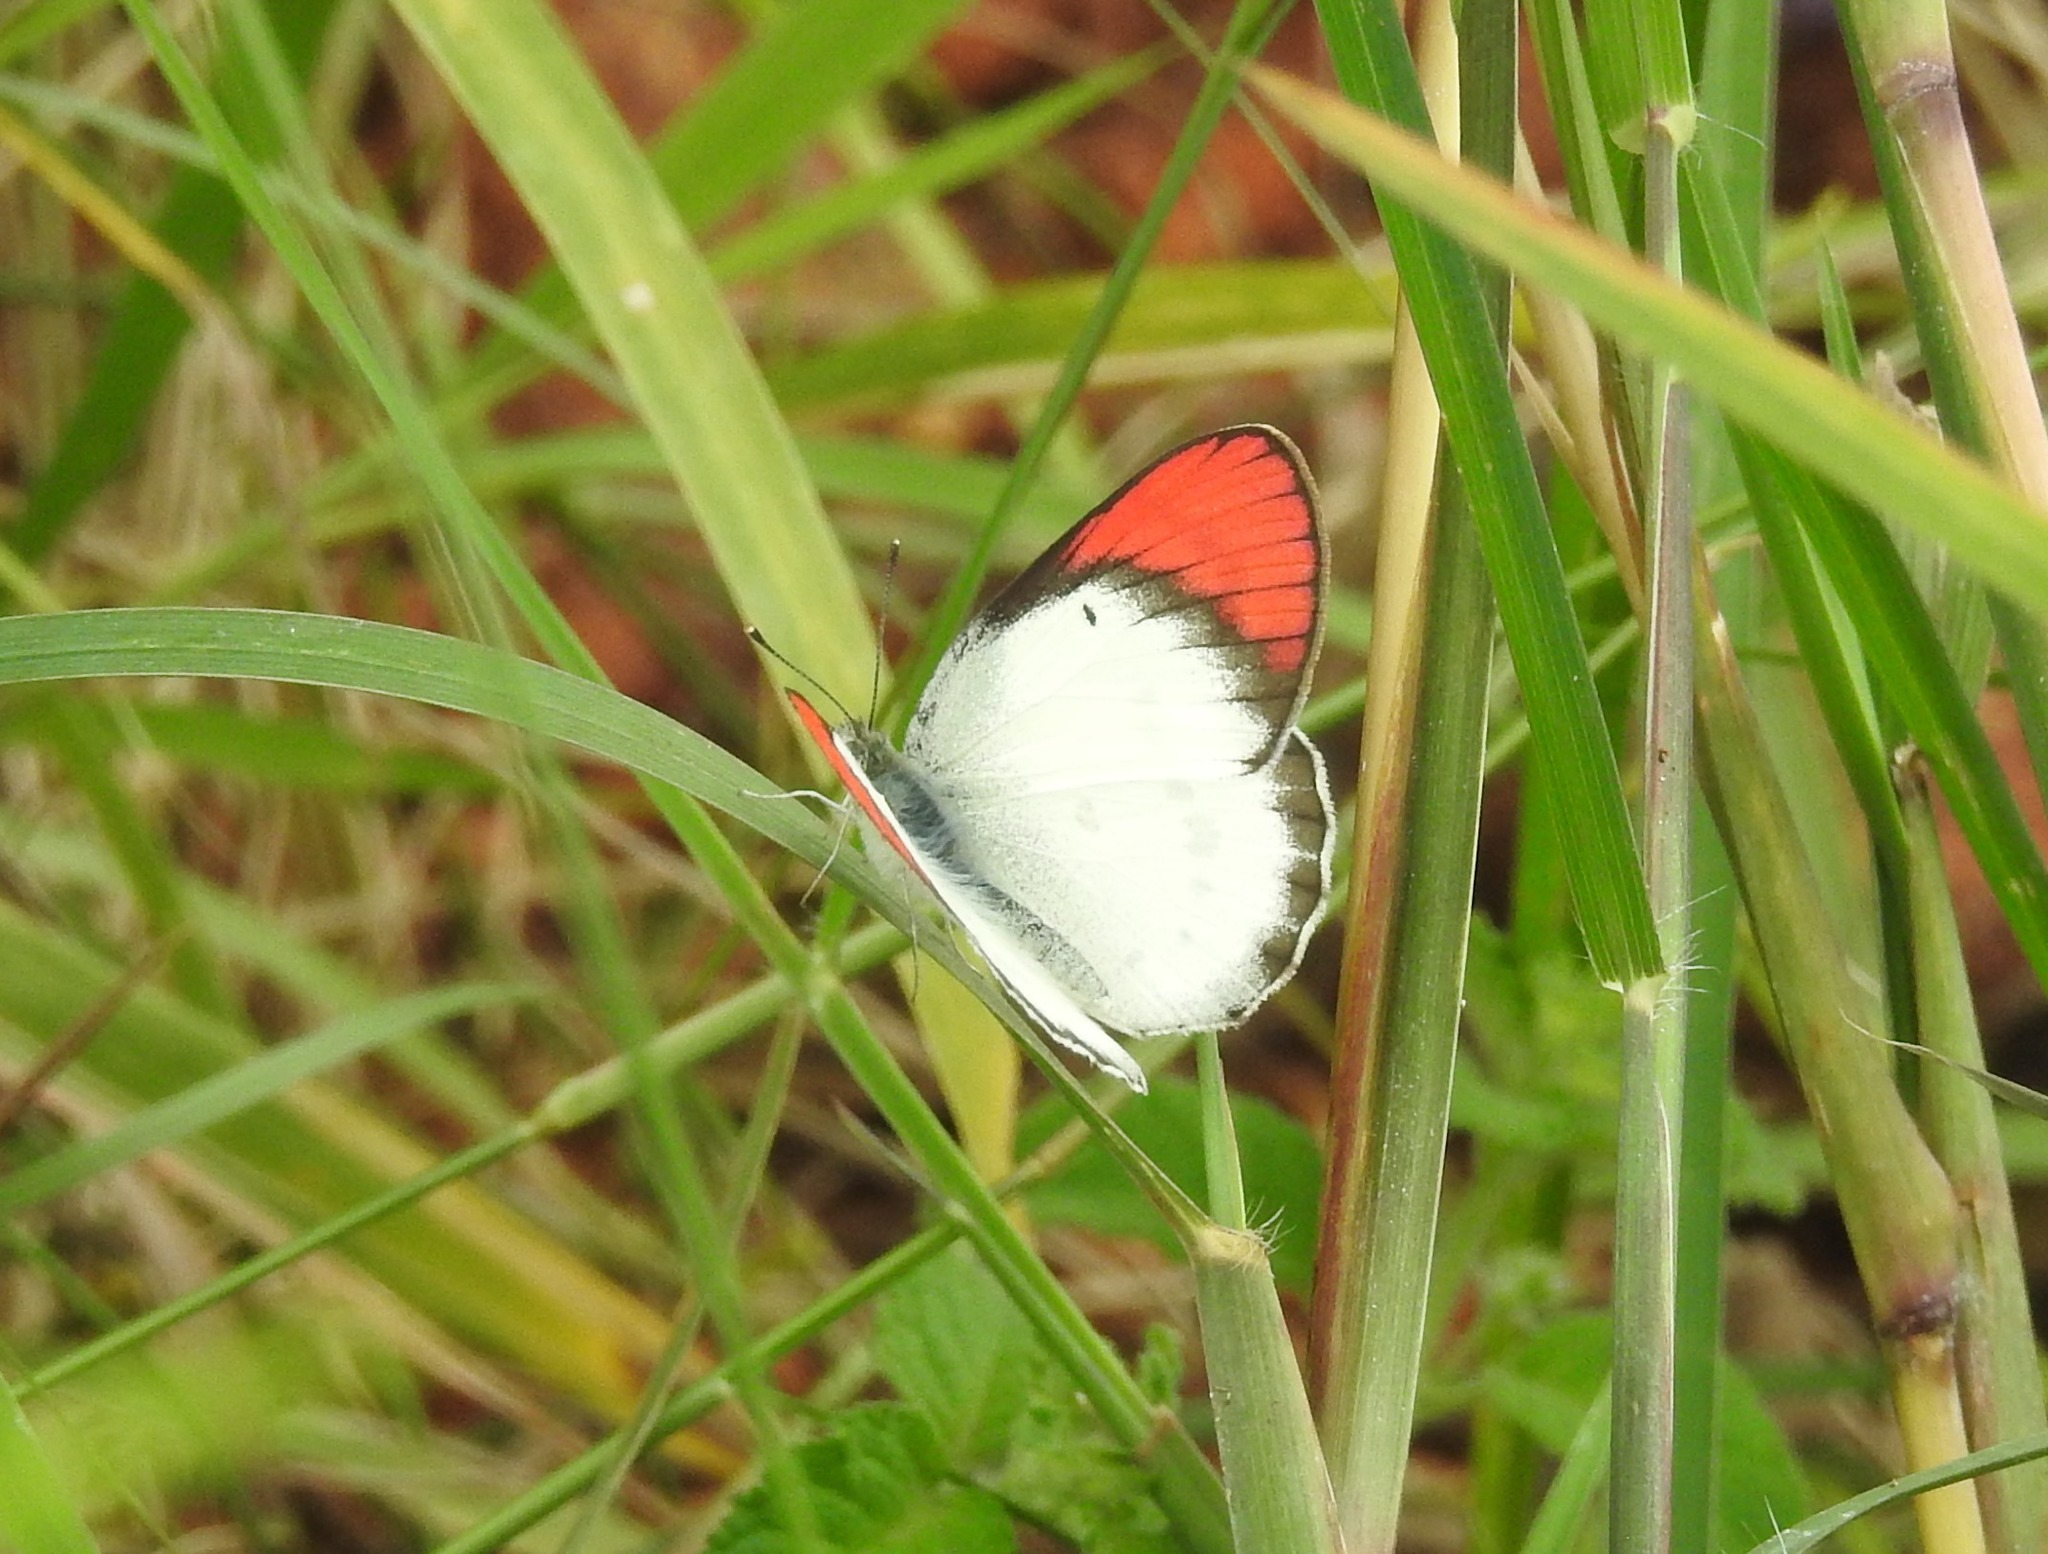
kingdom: Animalia
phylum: Arthropoda
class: Insecta
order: Lepidoptera
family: Pieridae
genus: Colotis
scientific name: Colotis danae
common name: Crimson tip
